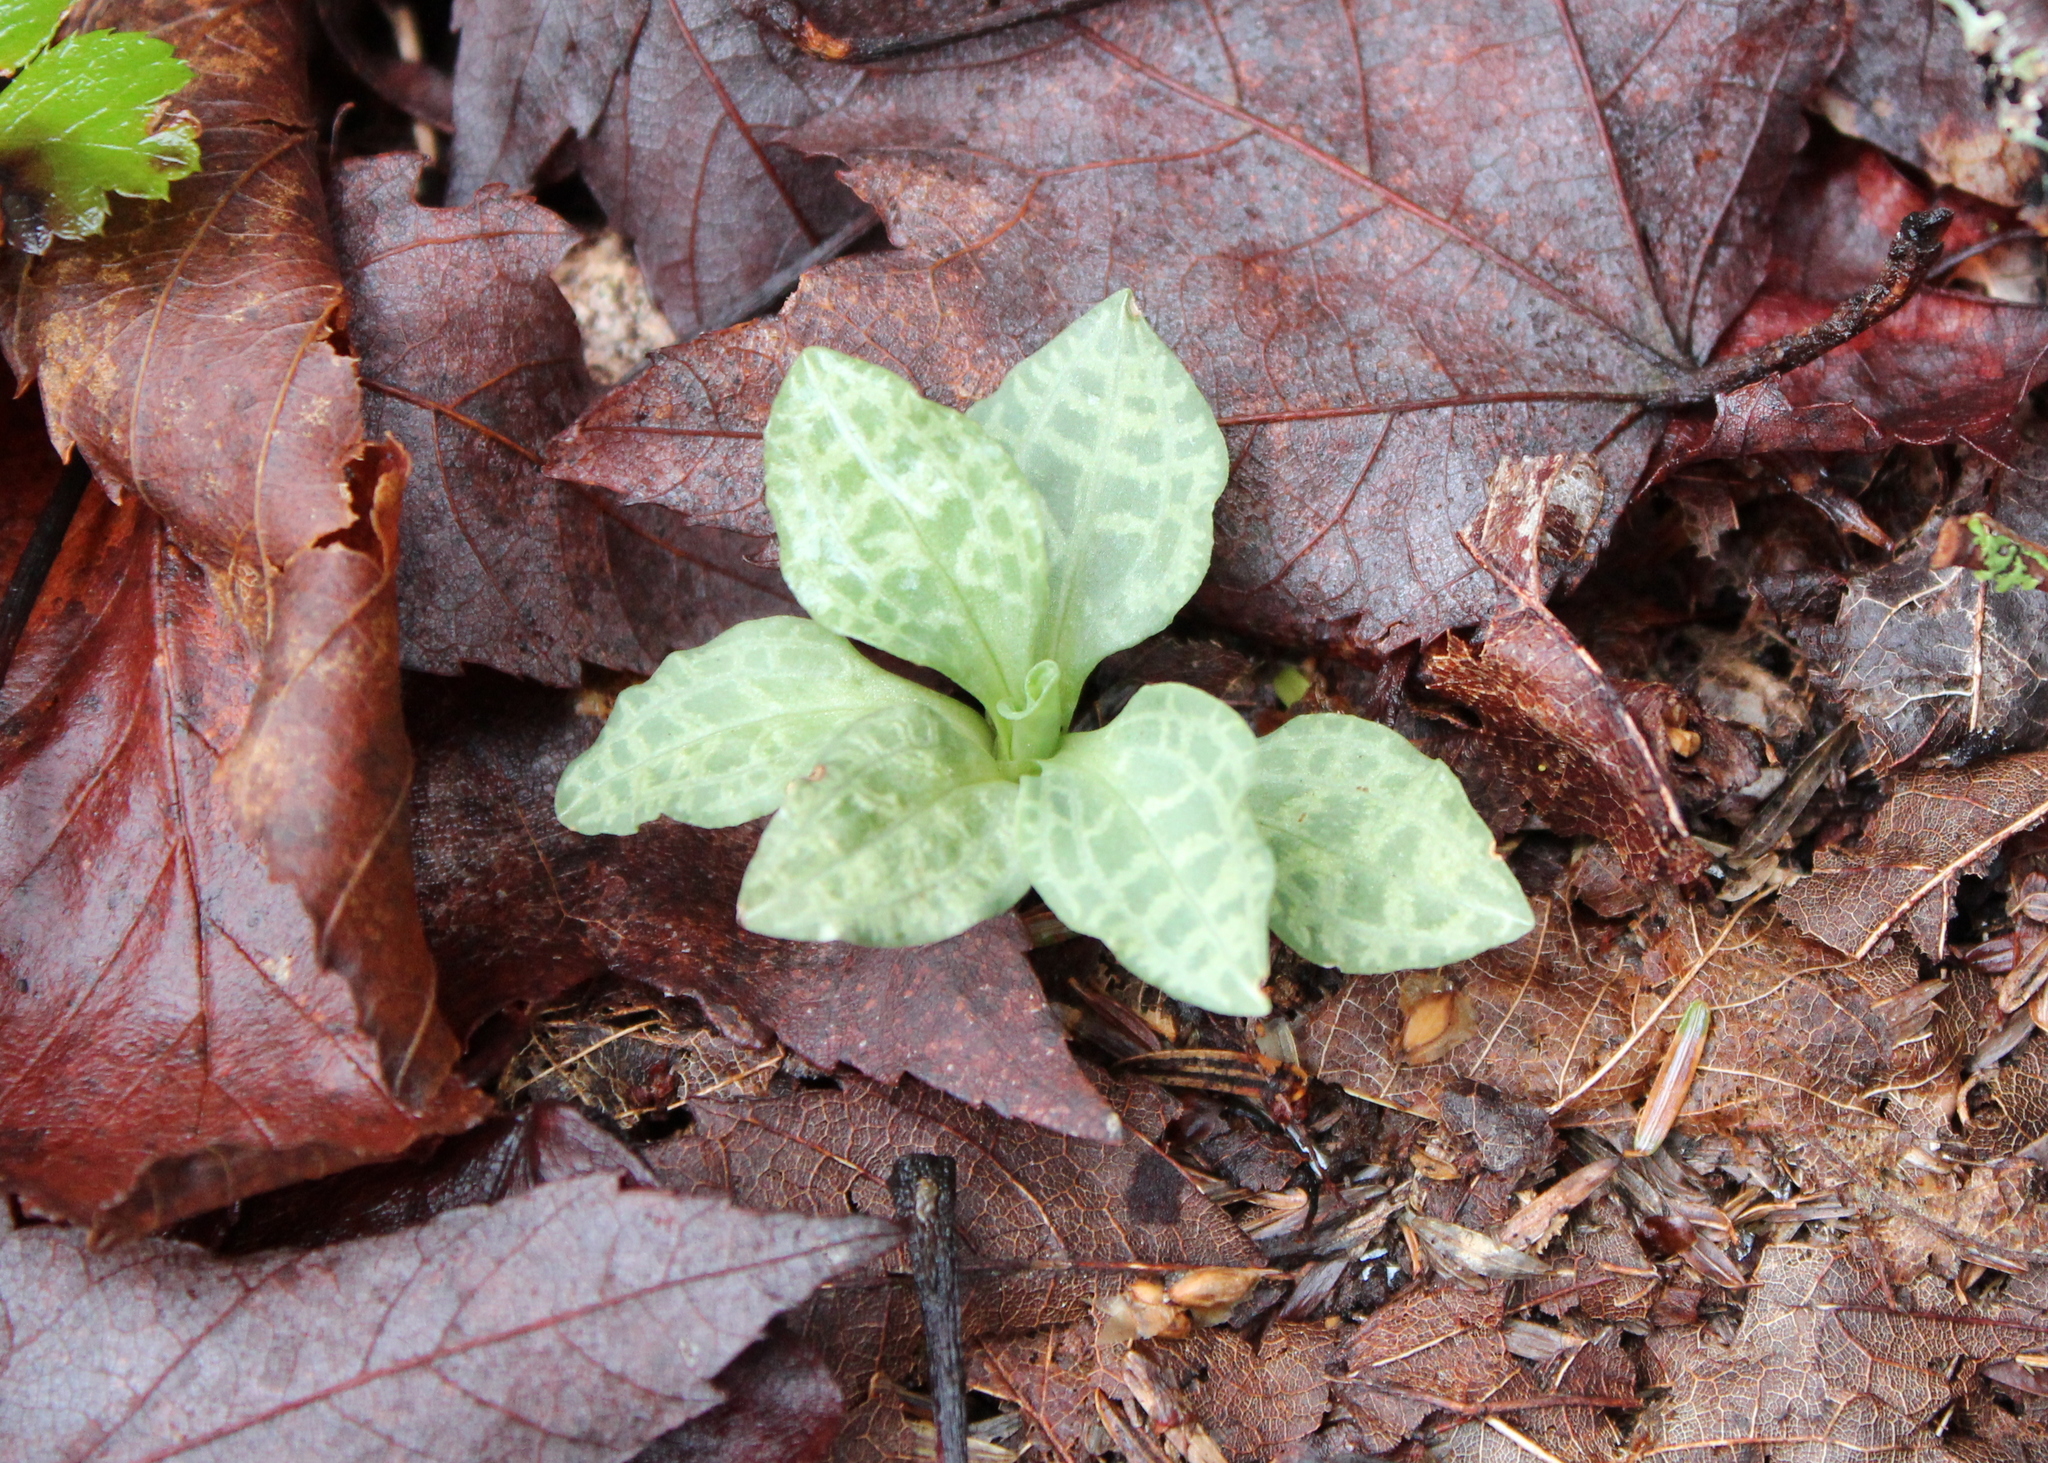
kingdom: Plantae
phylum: Tracheophyta
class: Liliopsida
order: Asparagales
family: Orchidaceae
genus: Goodyera
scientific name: Goodyera tesselata
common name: Checkered rattlesnake-plantain
